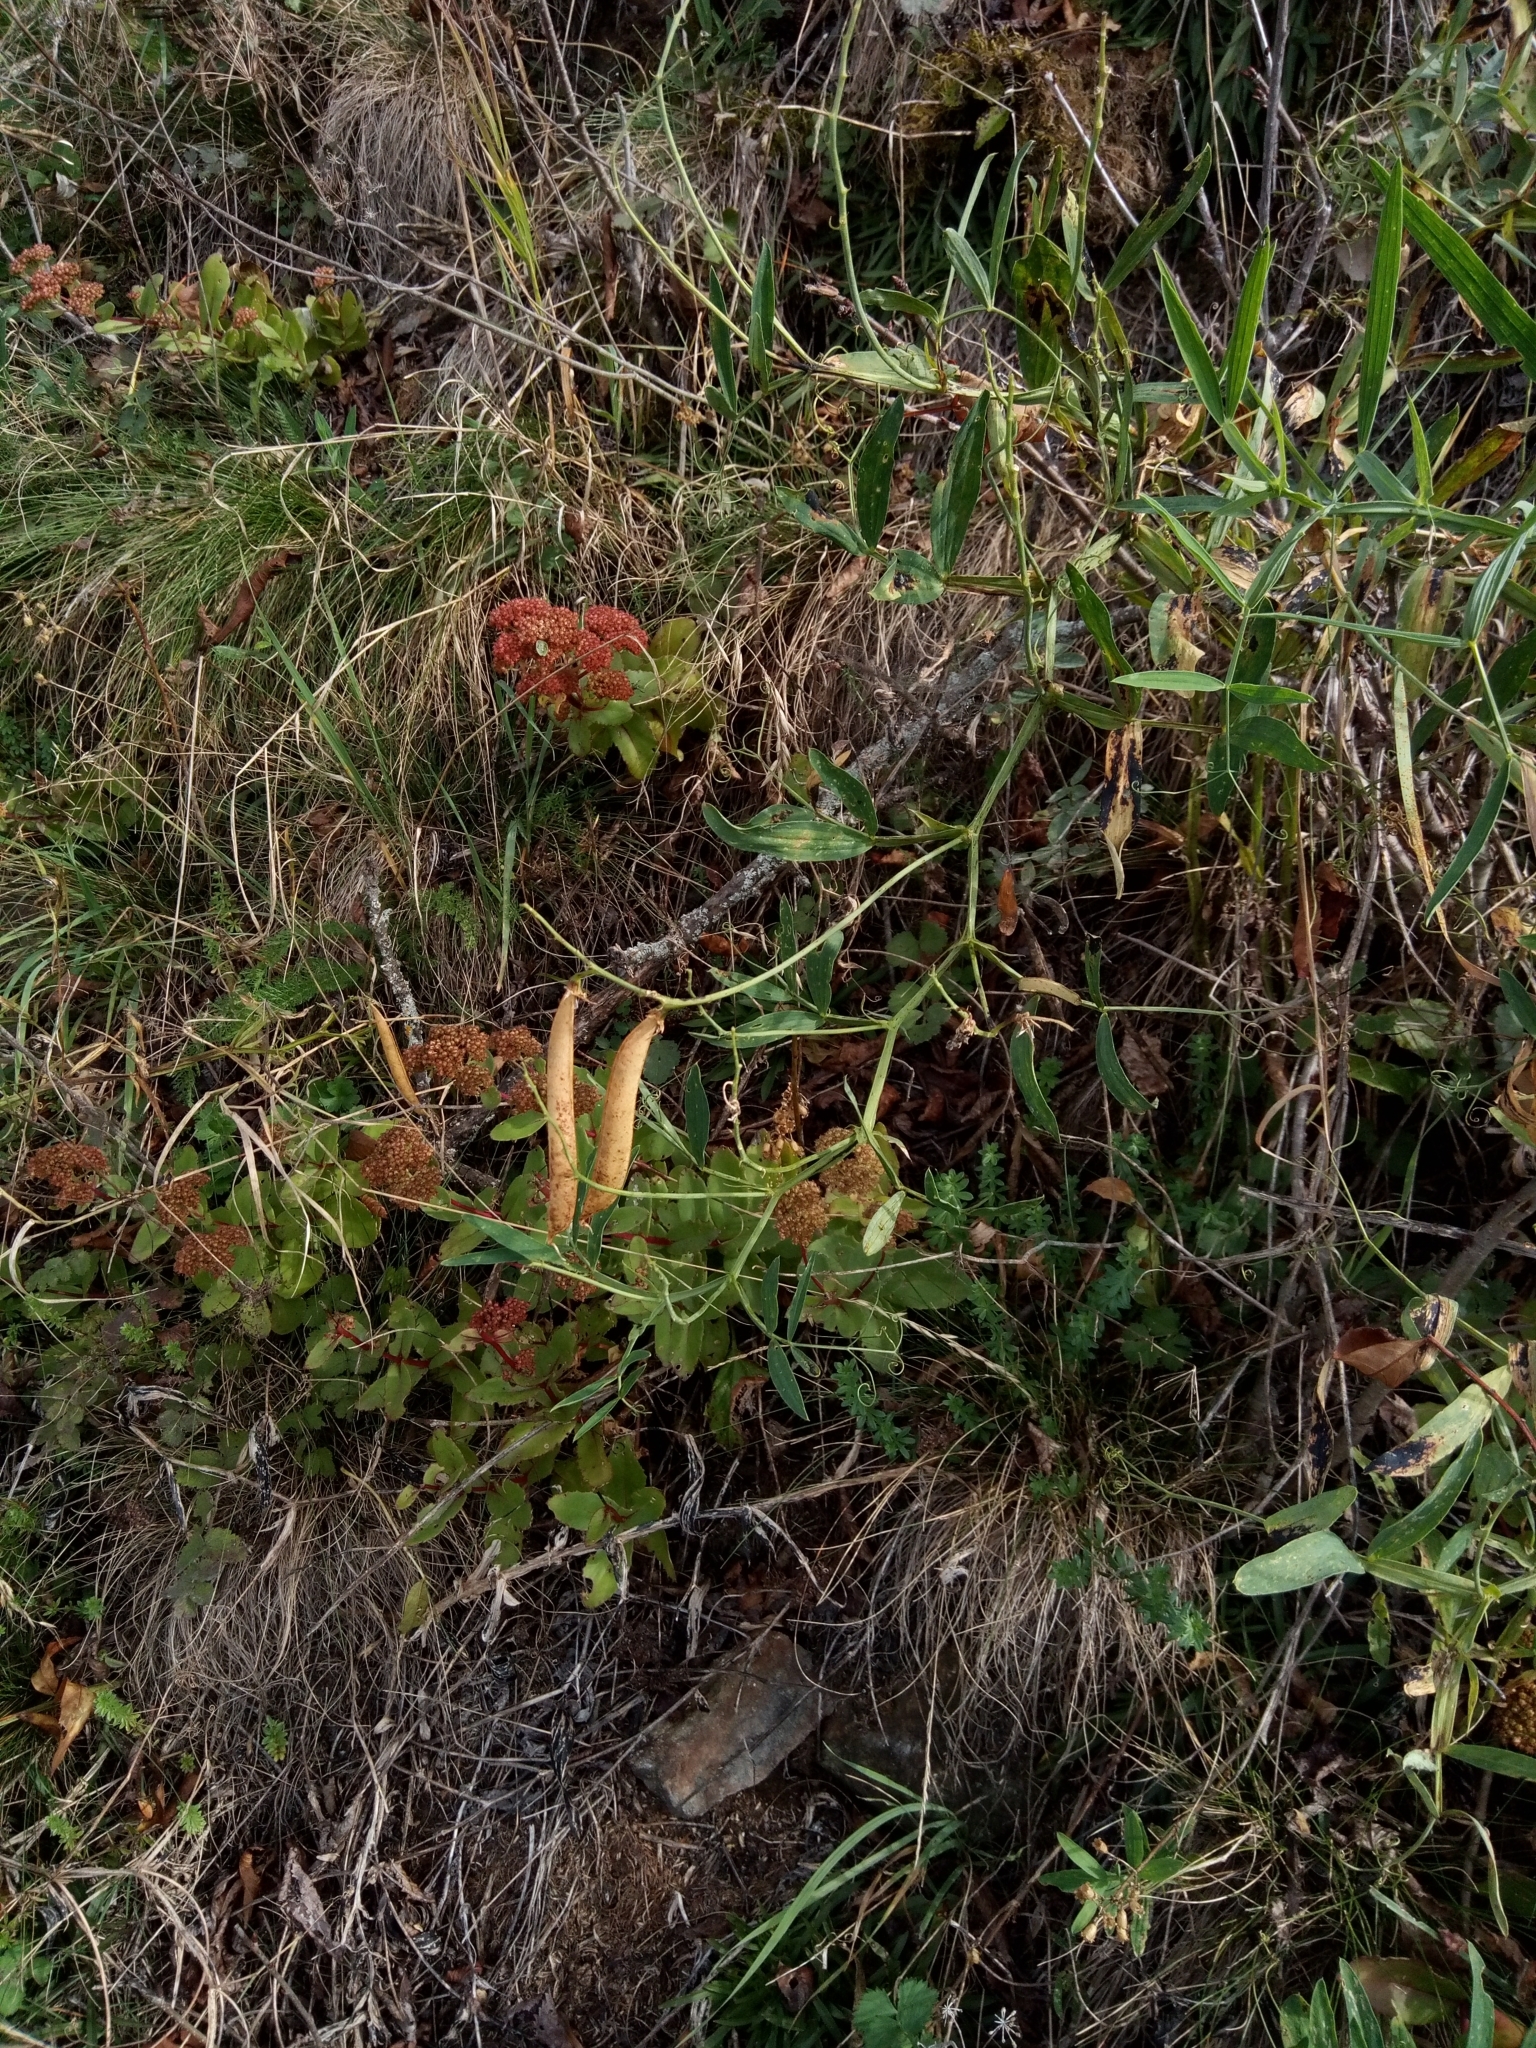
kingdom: Plantae
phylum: Tracheophyta
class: Magnoliopsida
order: Fabales
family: Fabaceae
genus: Lathyrus
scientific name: Lathyrus latifolius
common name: Perennial pea
